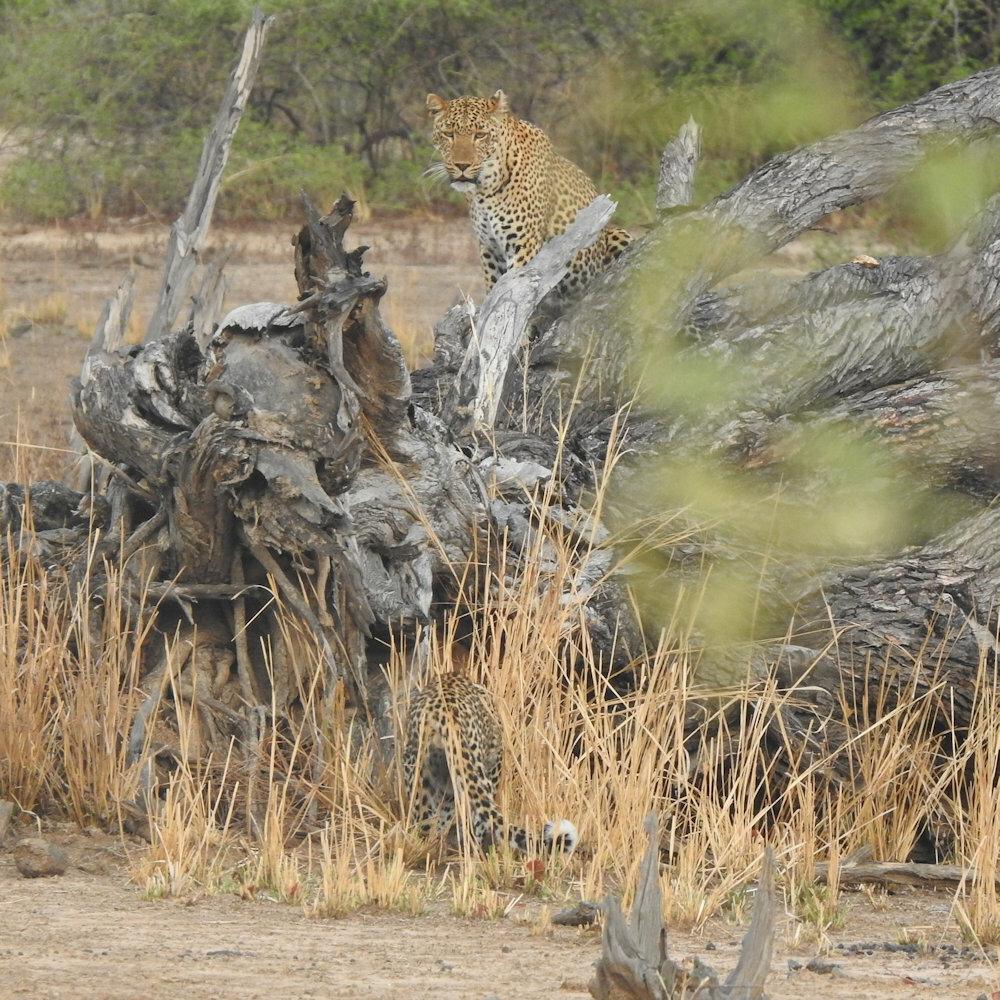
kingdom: Animalia
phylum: Chordata
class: Mammalia
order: Carnivora
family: Felidae
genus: Panthera
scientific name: Panthera pardus
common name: Leopard
